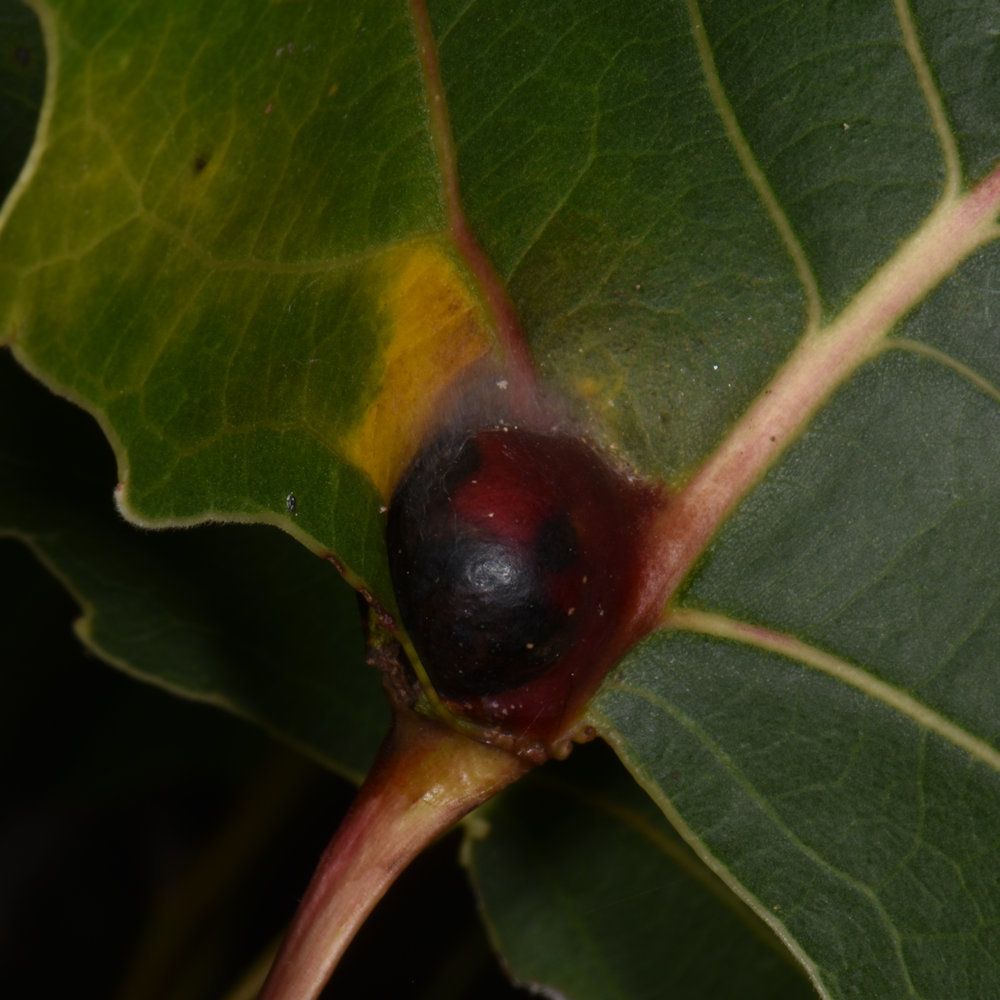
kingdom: Animalia
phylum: Arthropoda
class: Insecta
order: Hemiptera
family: Aphididae
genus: Pemphigus
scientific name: Pemphigus populicaulis
